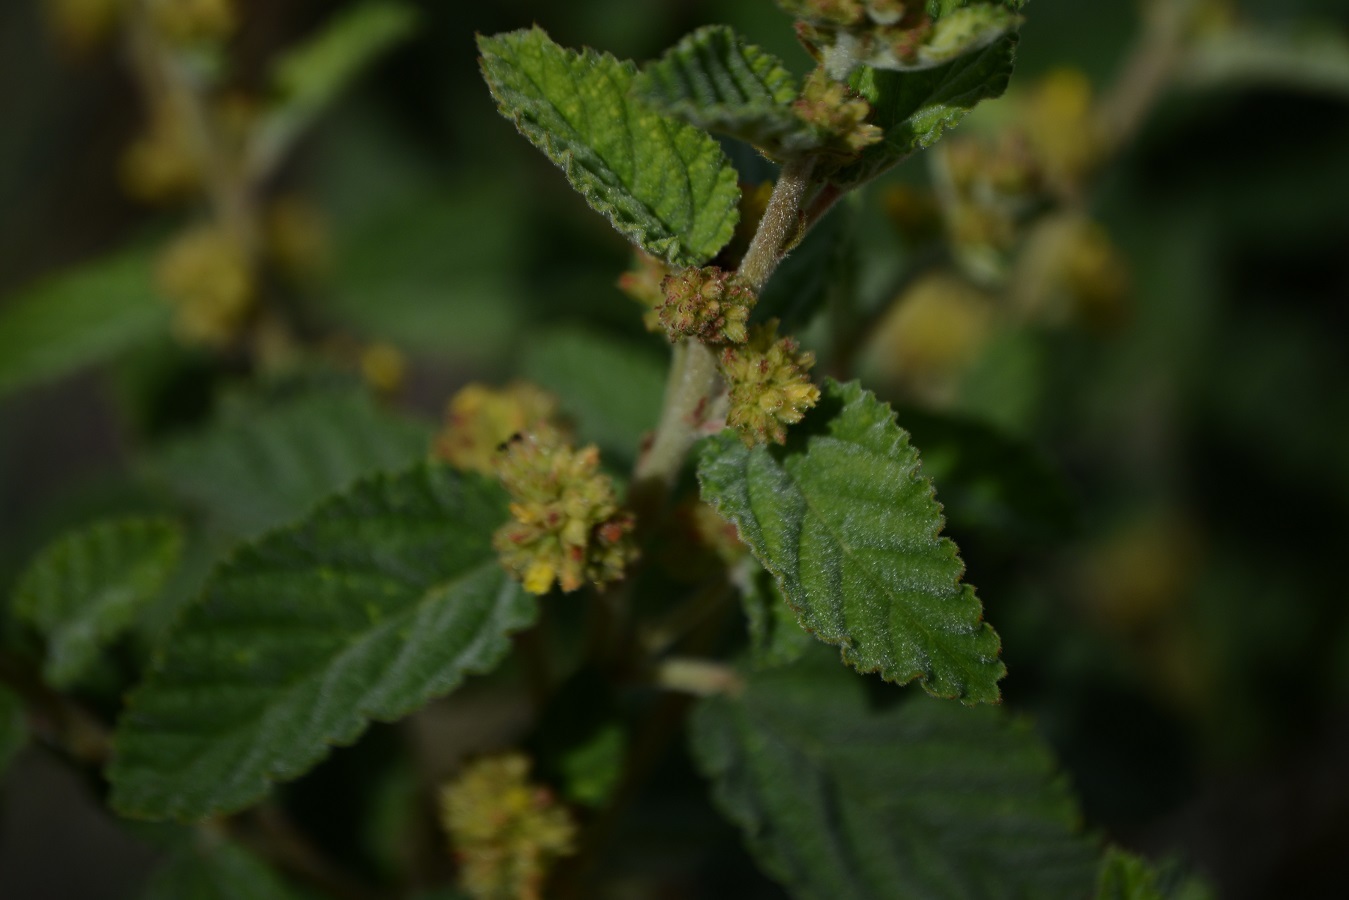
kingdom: Plantae
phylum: Tracheophyta
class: Magnoliopsida
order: Malvales
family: Malvaceae
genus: Waltheria
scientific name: Waltheria indica
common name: Leather-coat
